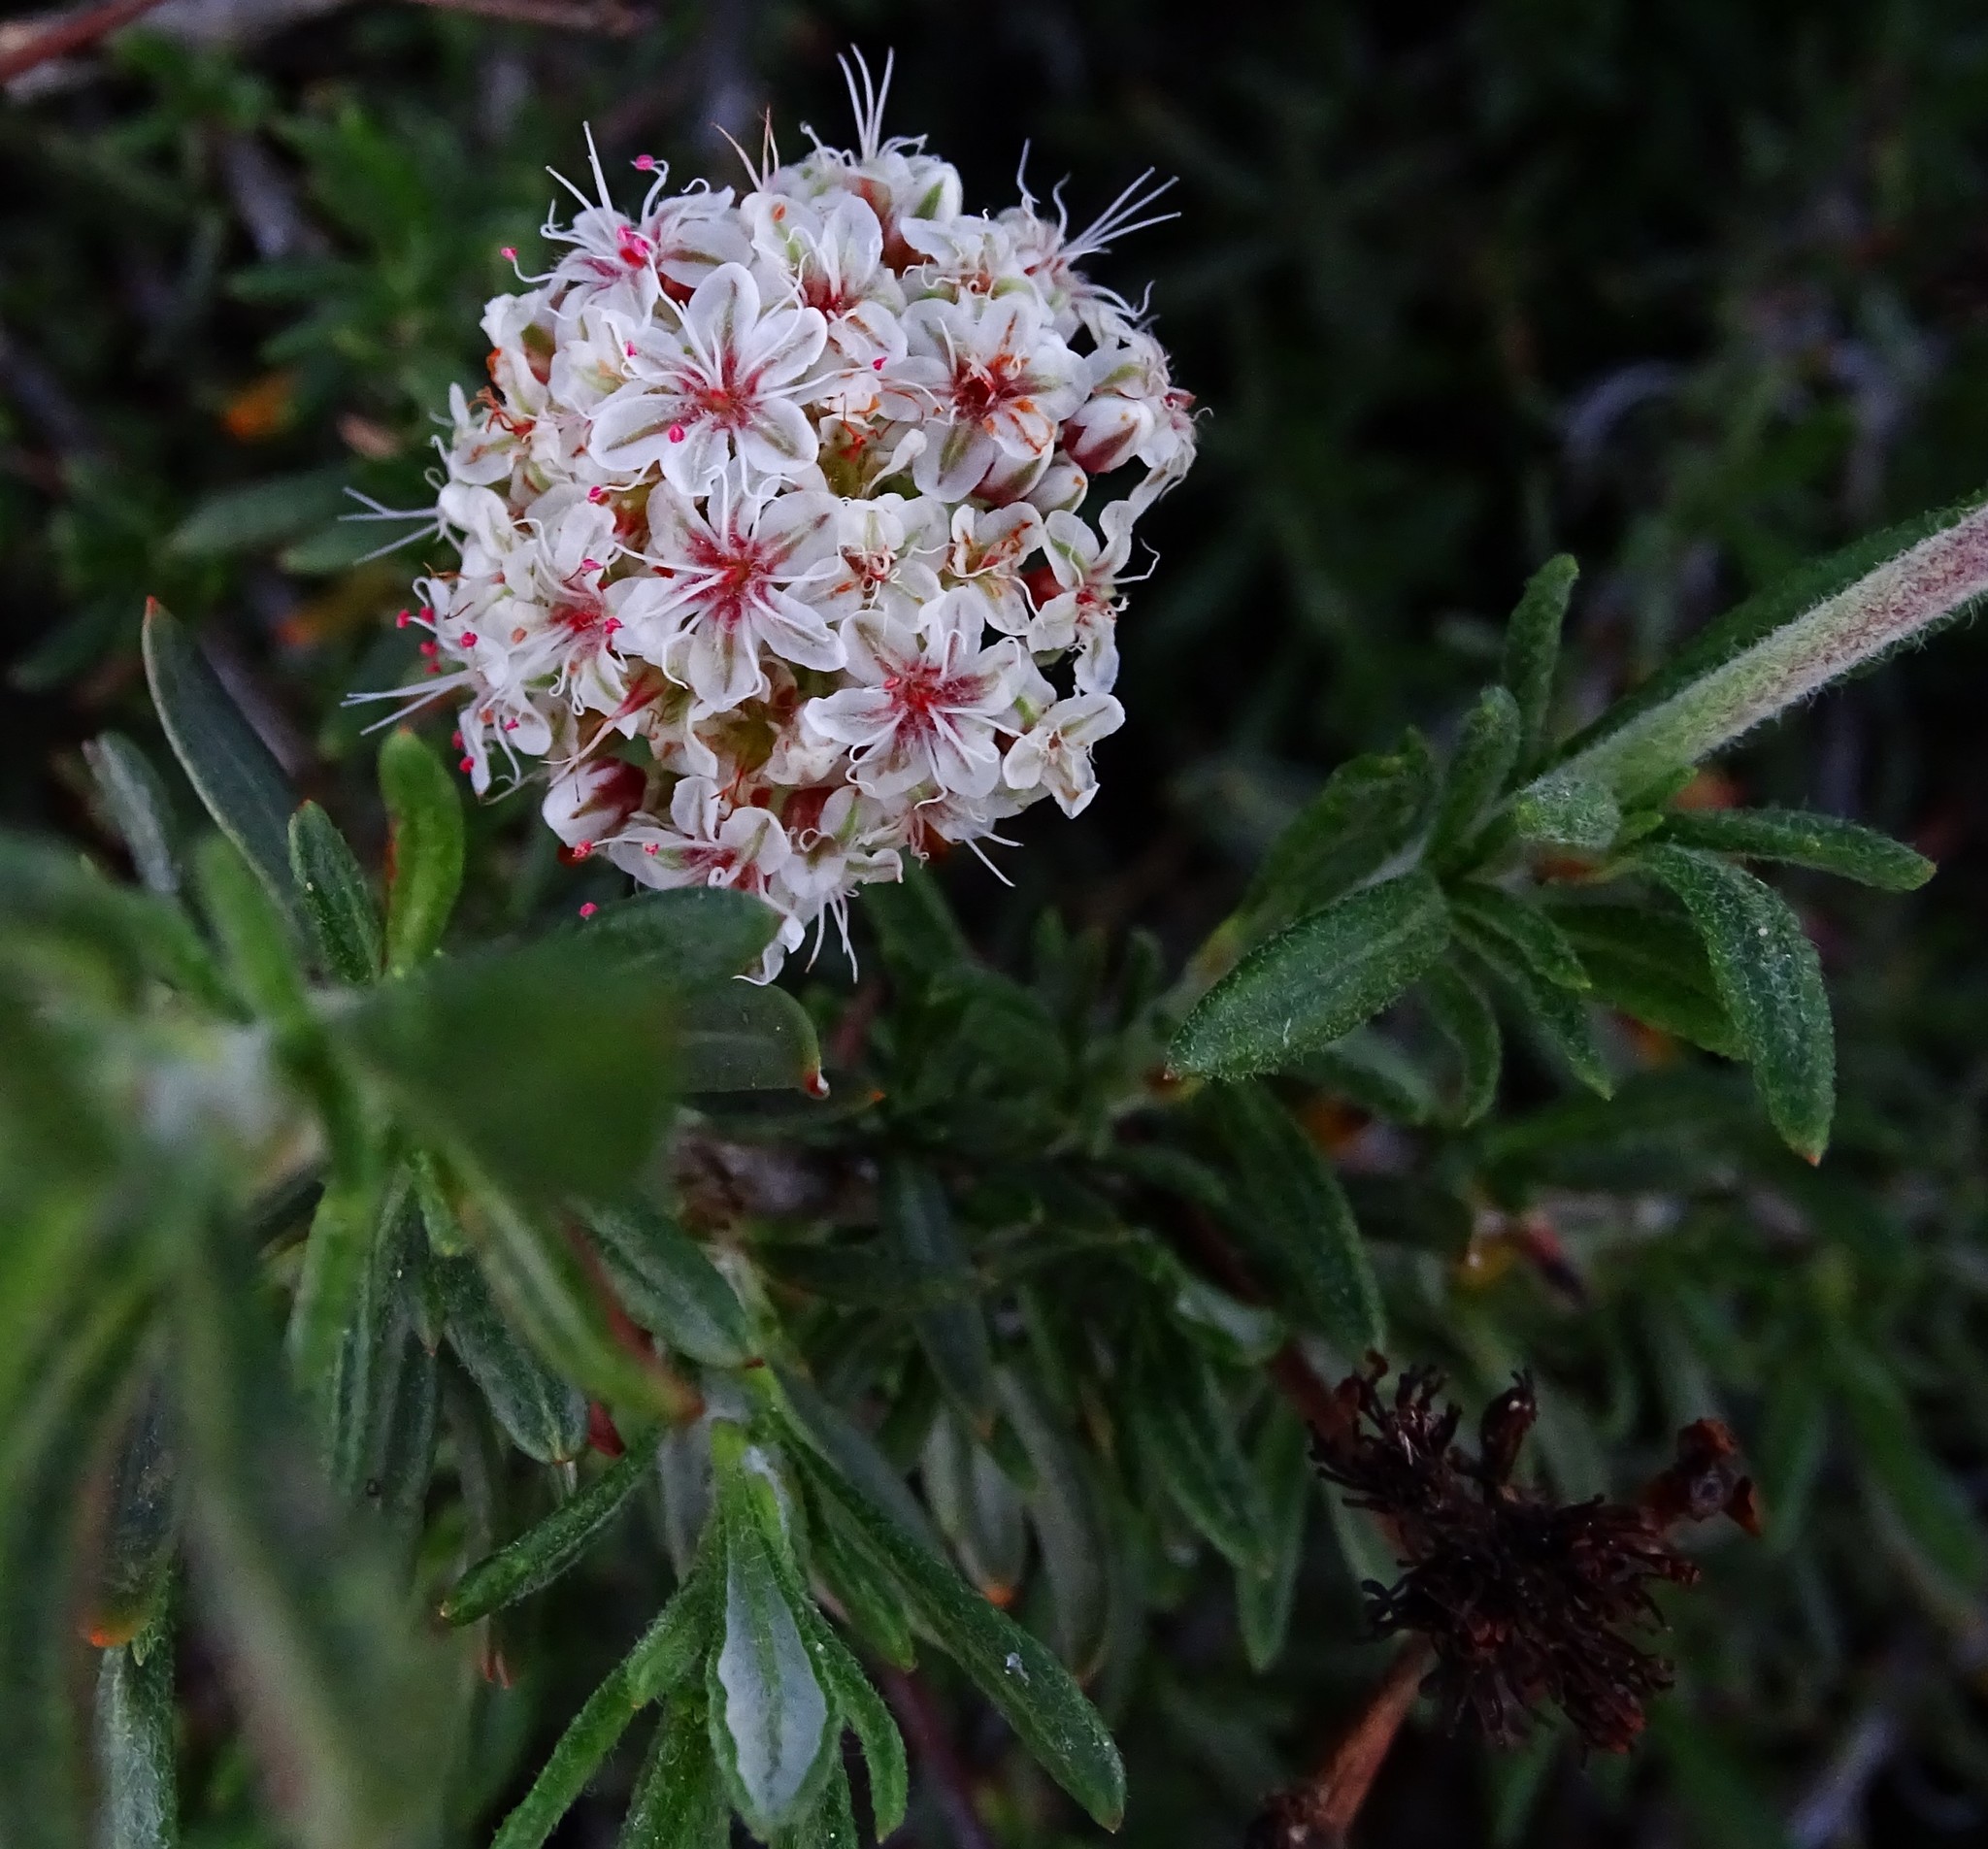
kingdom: Plantae
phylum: Tracheophyta
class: Magnoliopsida
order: Caryophyllales
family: Polygonaceae
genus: Eriogonum
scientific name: Eriogonum fasciculatum
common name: California wild buckwheat
